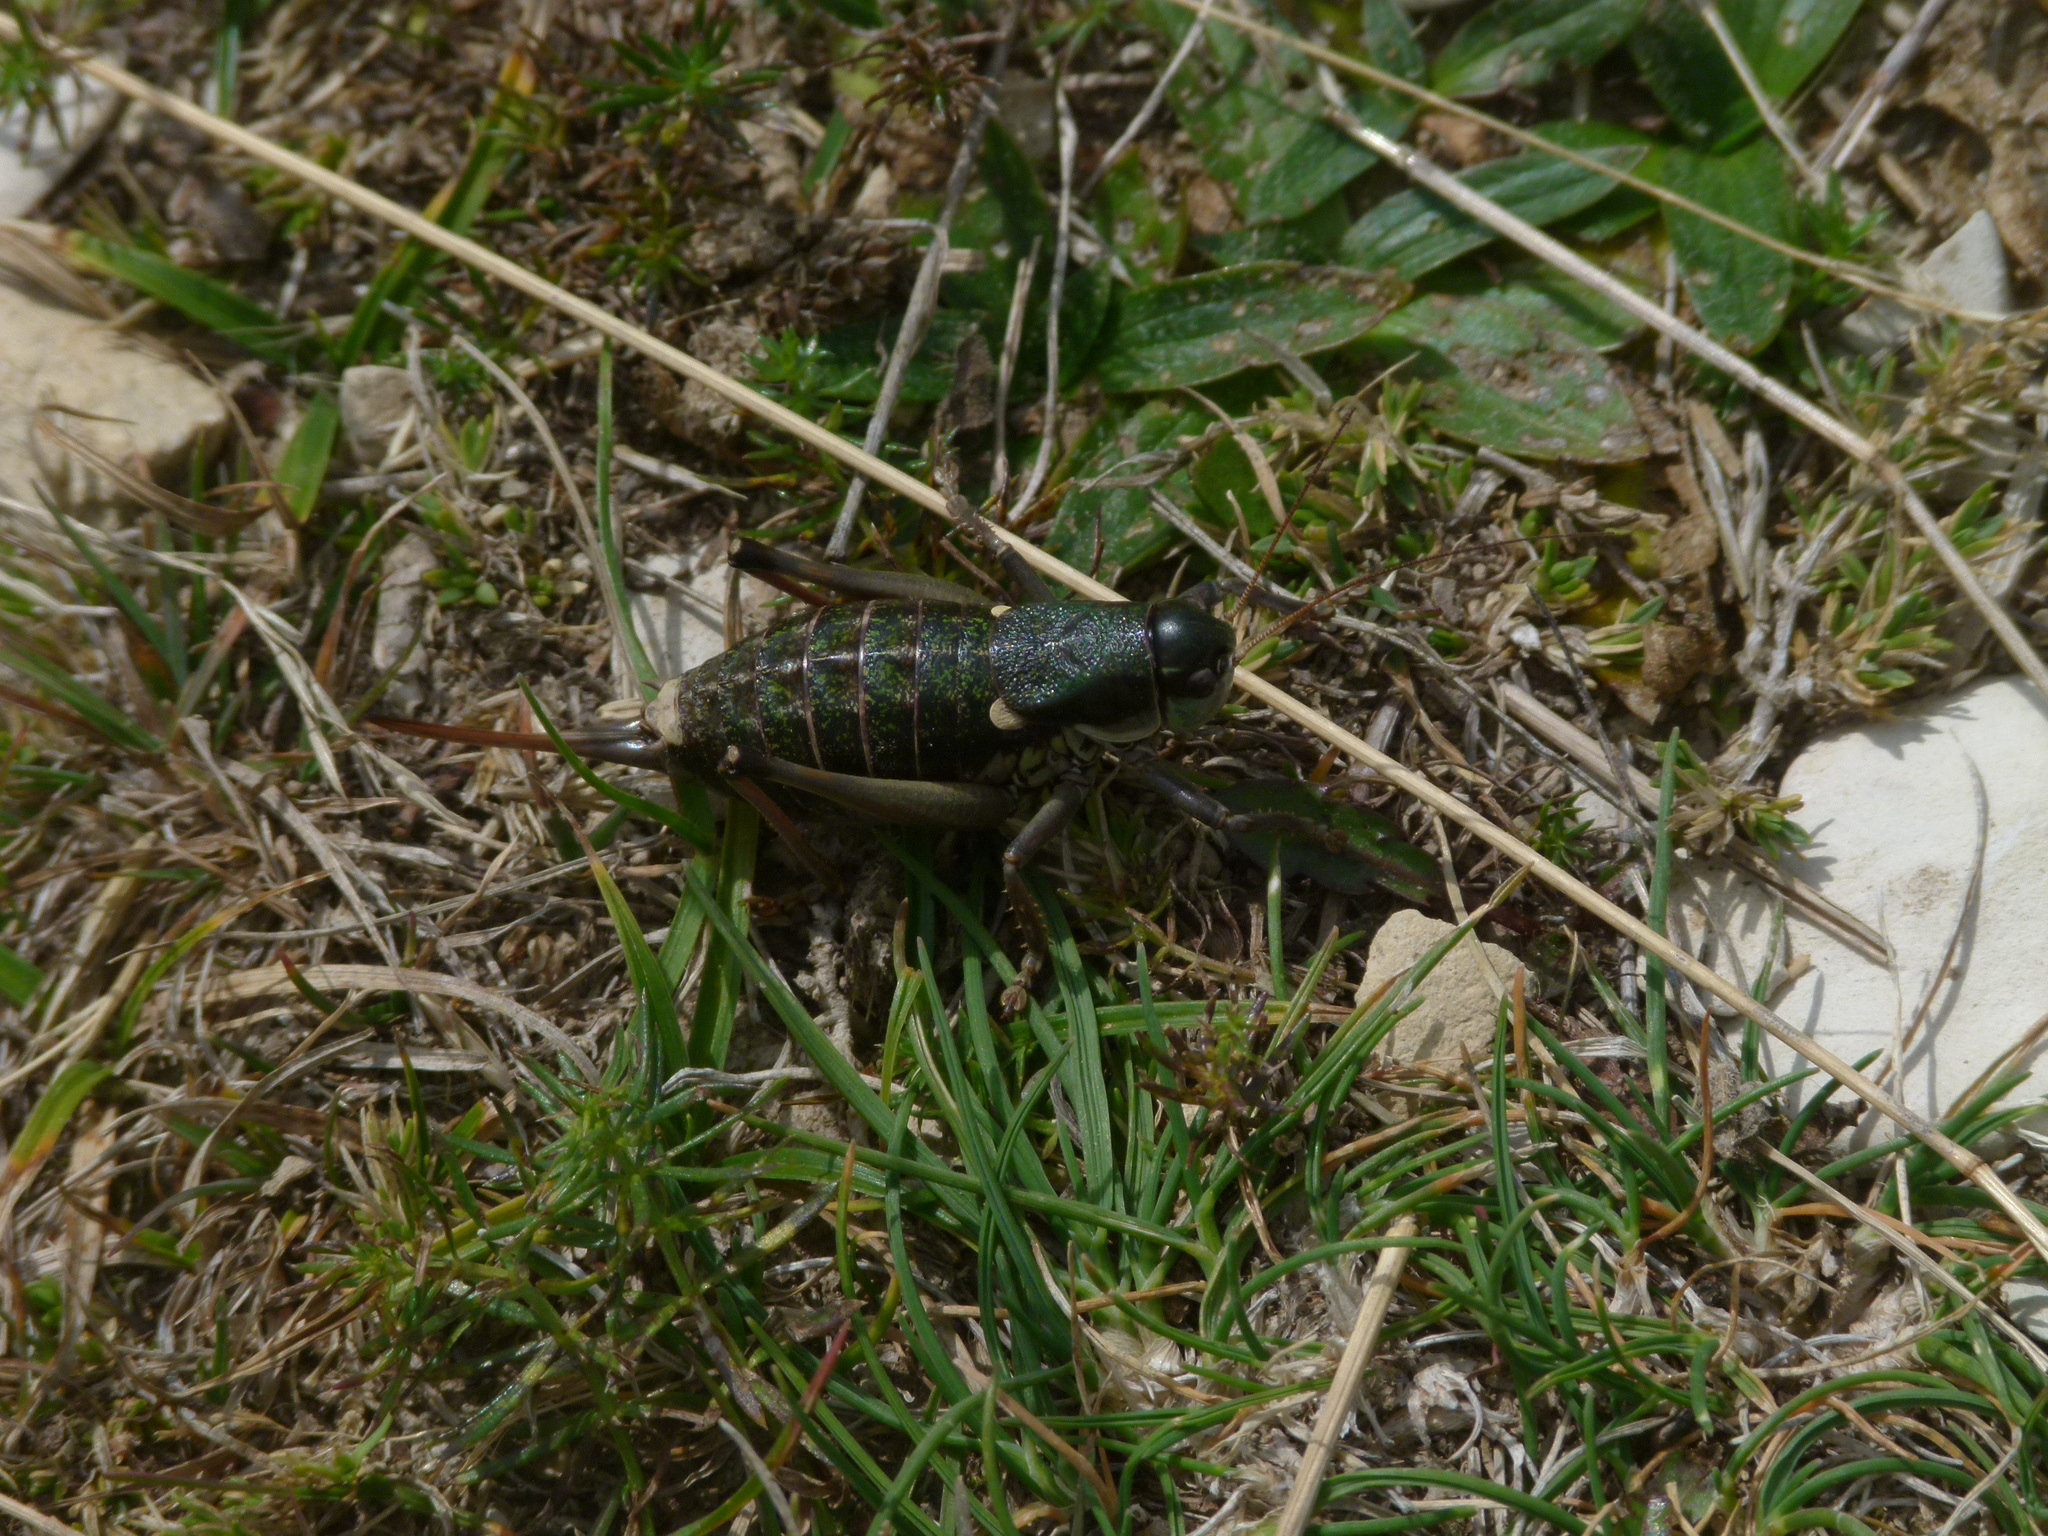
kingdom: Animalia
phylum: Arthropoda
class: Insecta
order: Orthoptera
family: Tettigoniidae
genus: Anonconotus
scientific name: Anonconotus ghilianii
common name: Ghiliani's alpine bush-cricket
